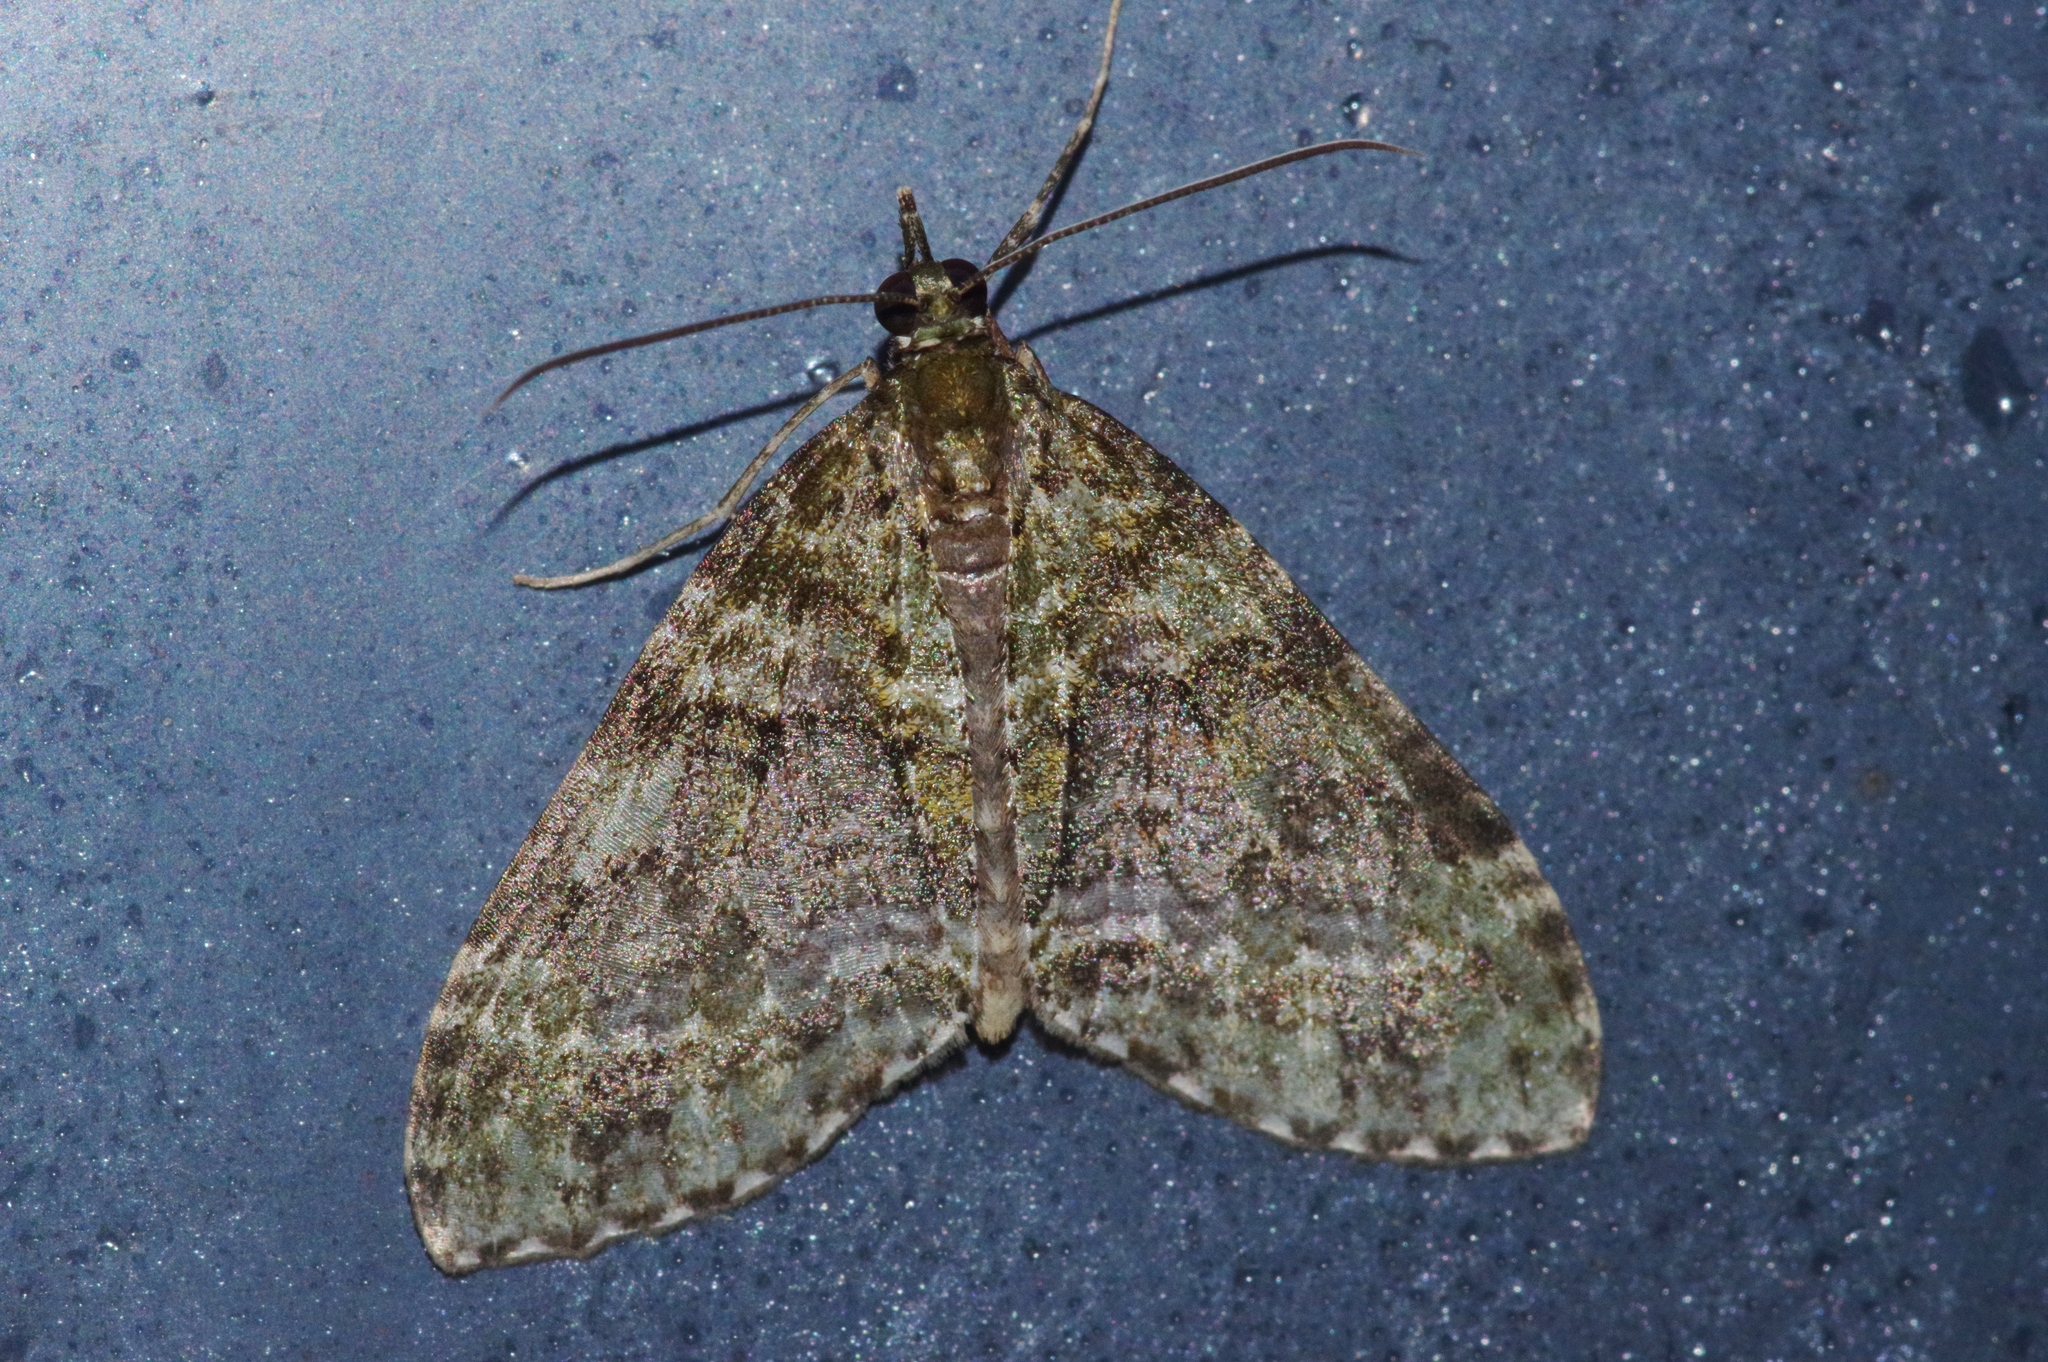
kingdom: Animalia
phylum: Arthropoda
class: Insecta
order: Lepidoptera
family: Geometridae
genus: Phthonoloba
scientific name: Phthonoloba viridifasciata
